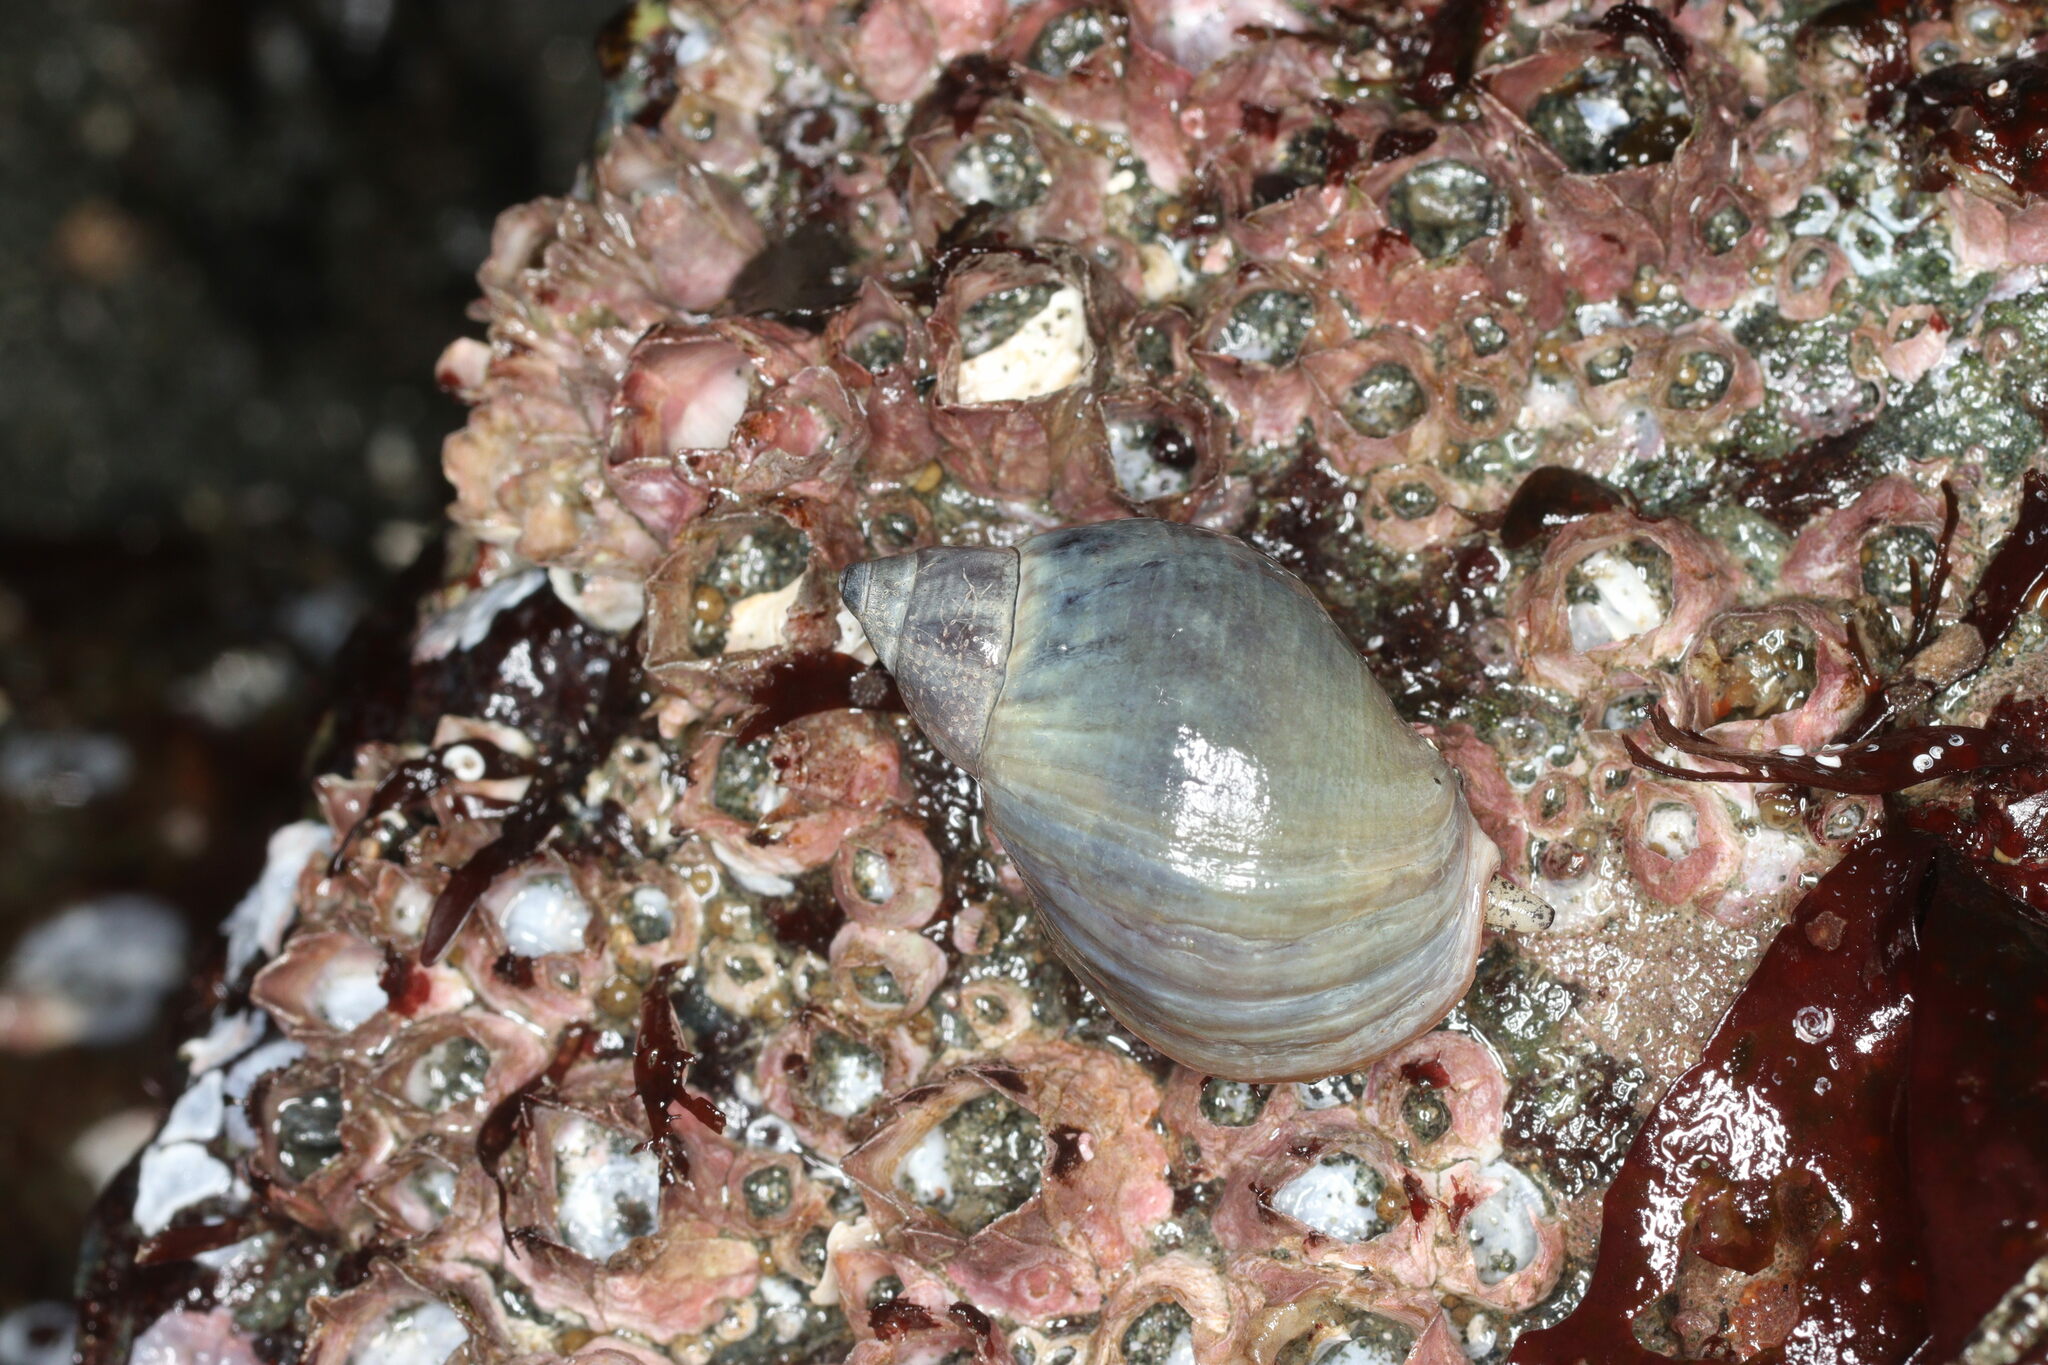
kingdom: Animalia
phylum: Mollusca
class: Gastropoda
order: Neogastropoda
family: Buccinidae
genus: Buccinum
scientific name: Buccinum baerii
